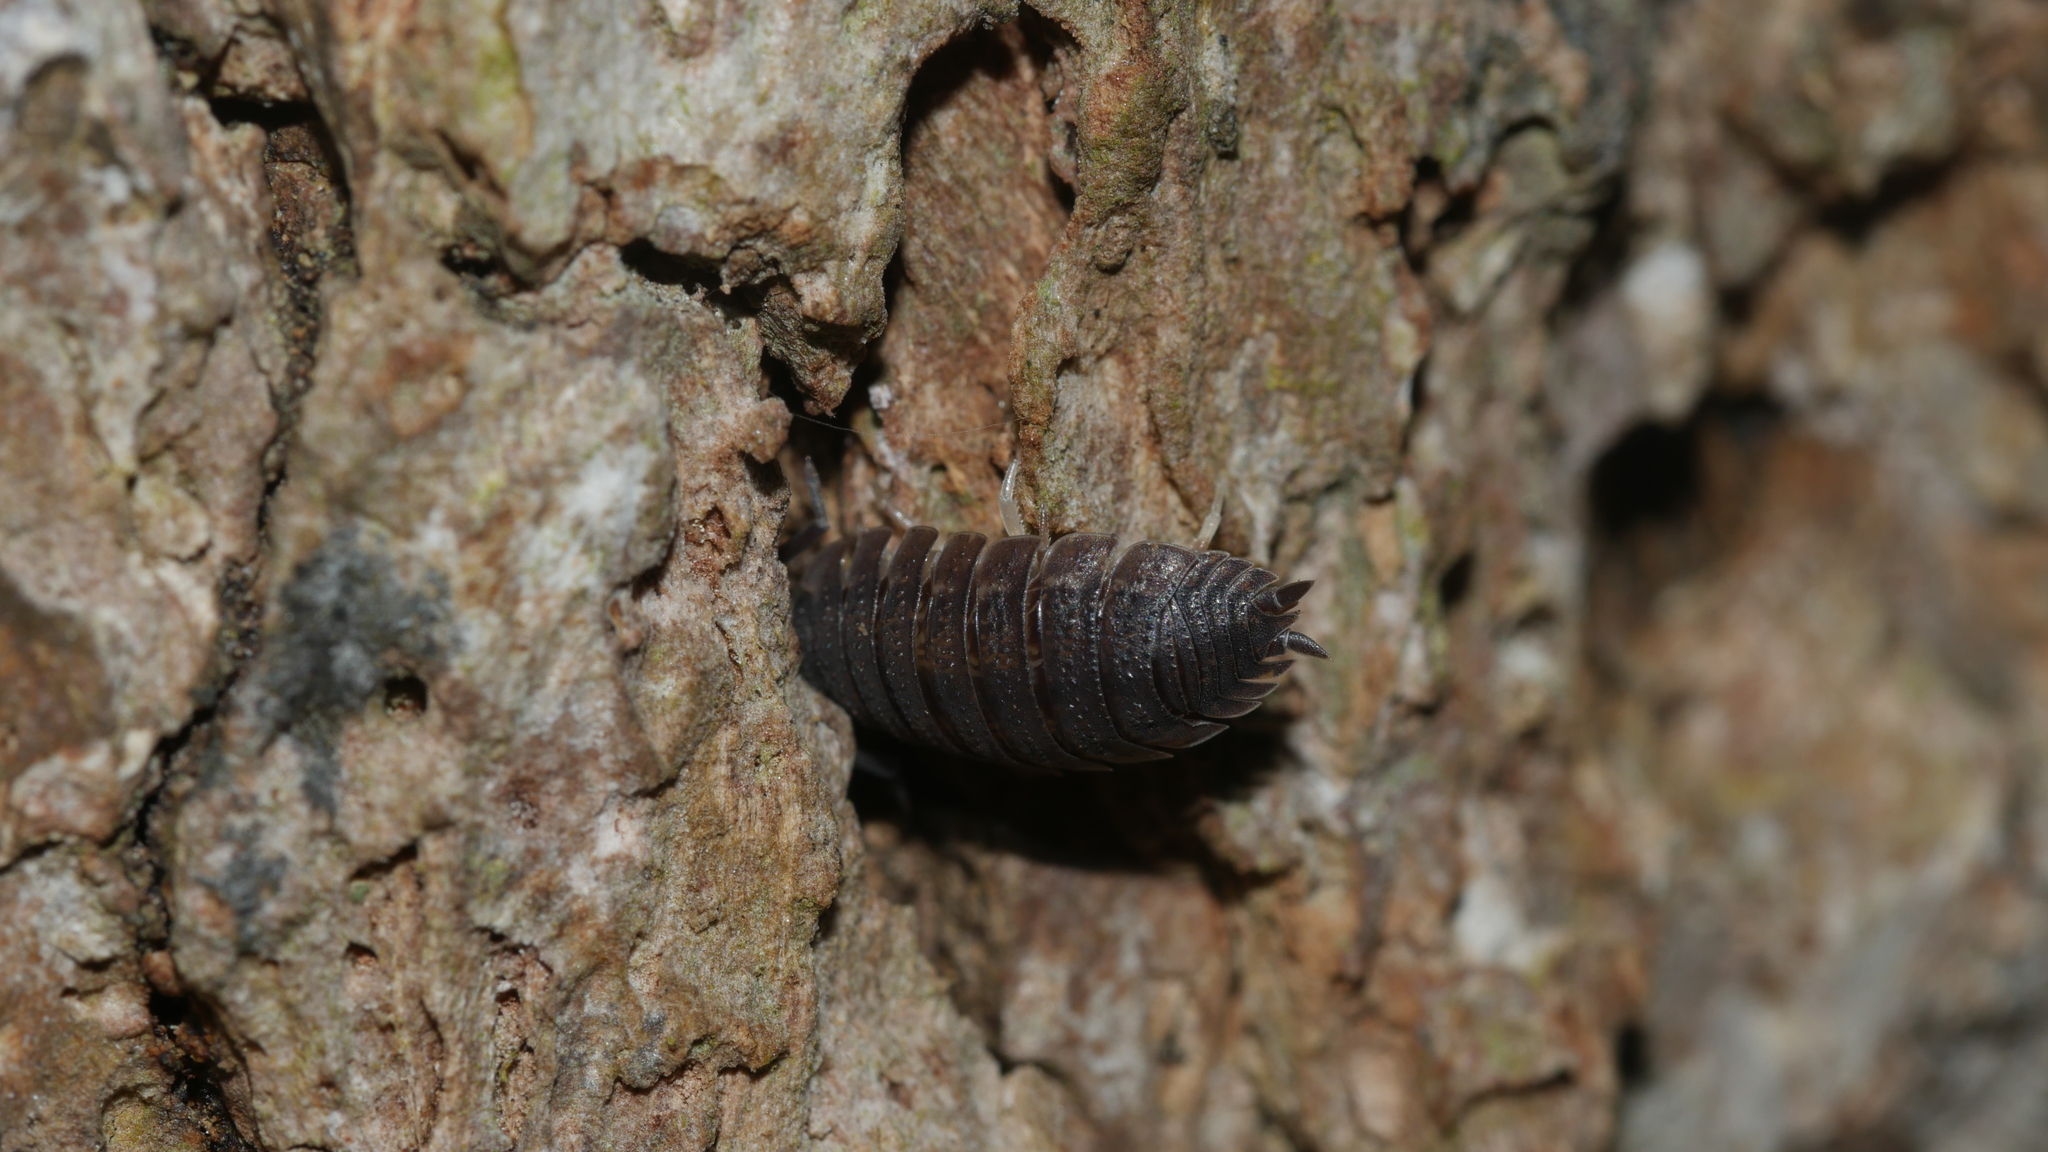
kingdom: Animalia
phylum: Arthropoda
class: Malacostraca
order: Isopoda
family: Porcellionidae
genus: Porcellio
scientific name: Porcellio scaber
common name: Common rough woodlouse
